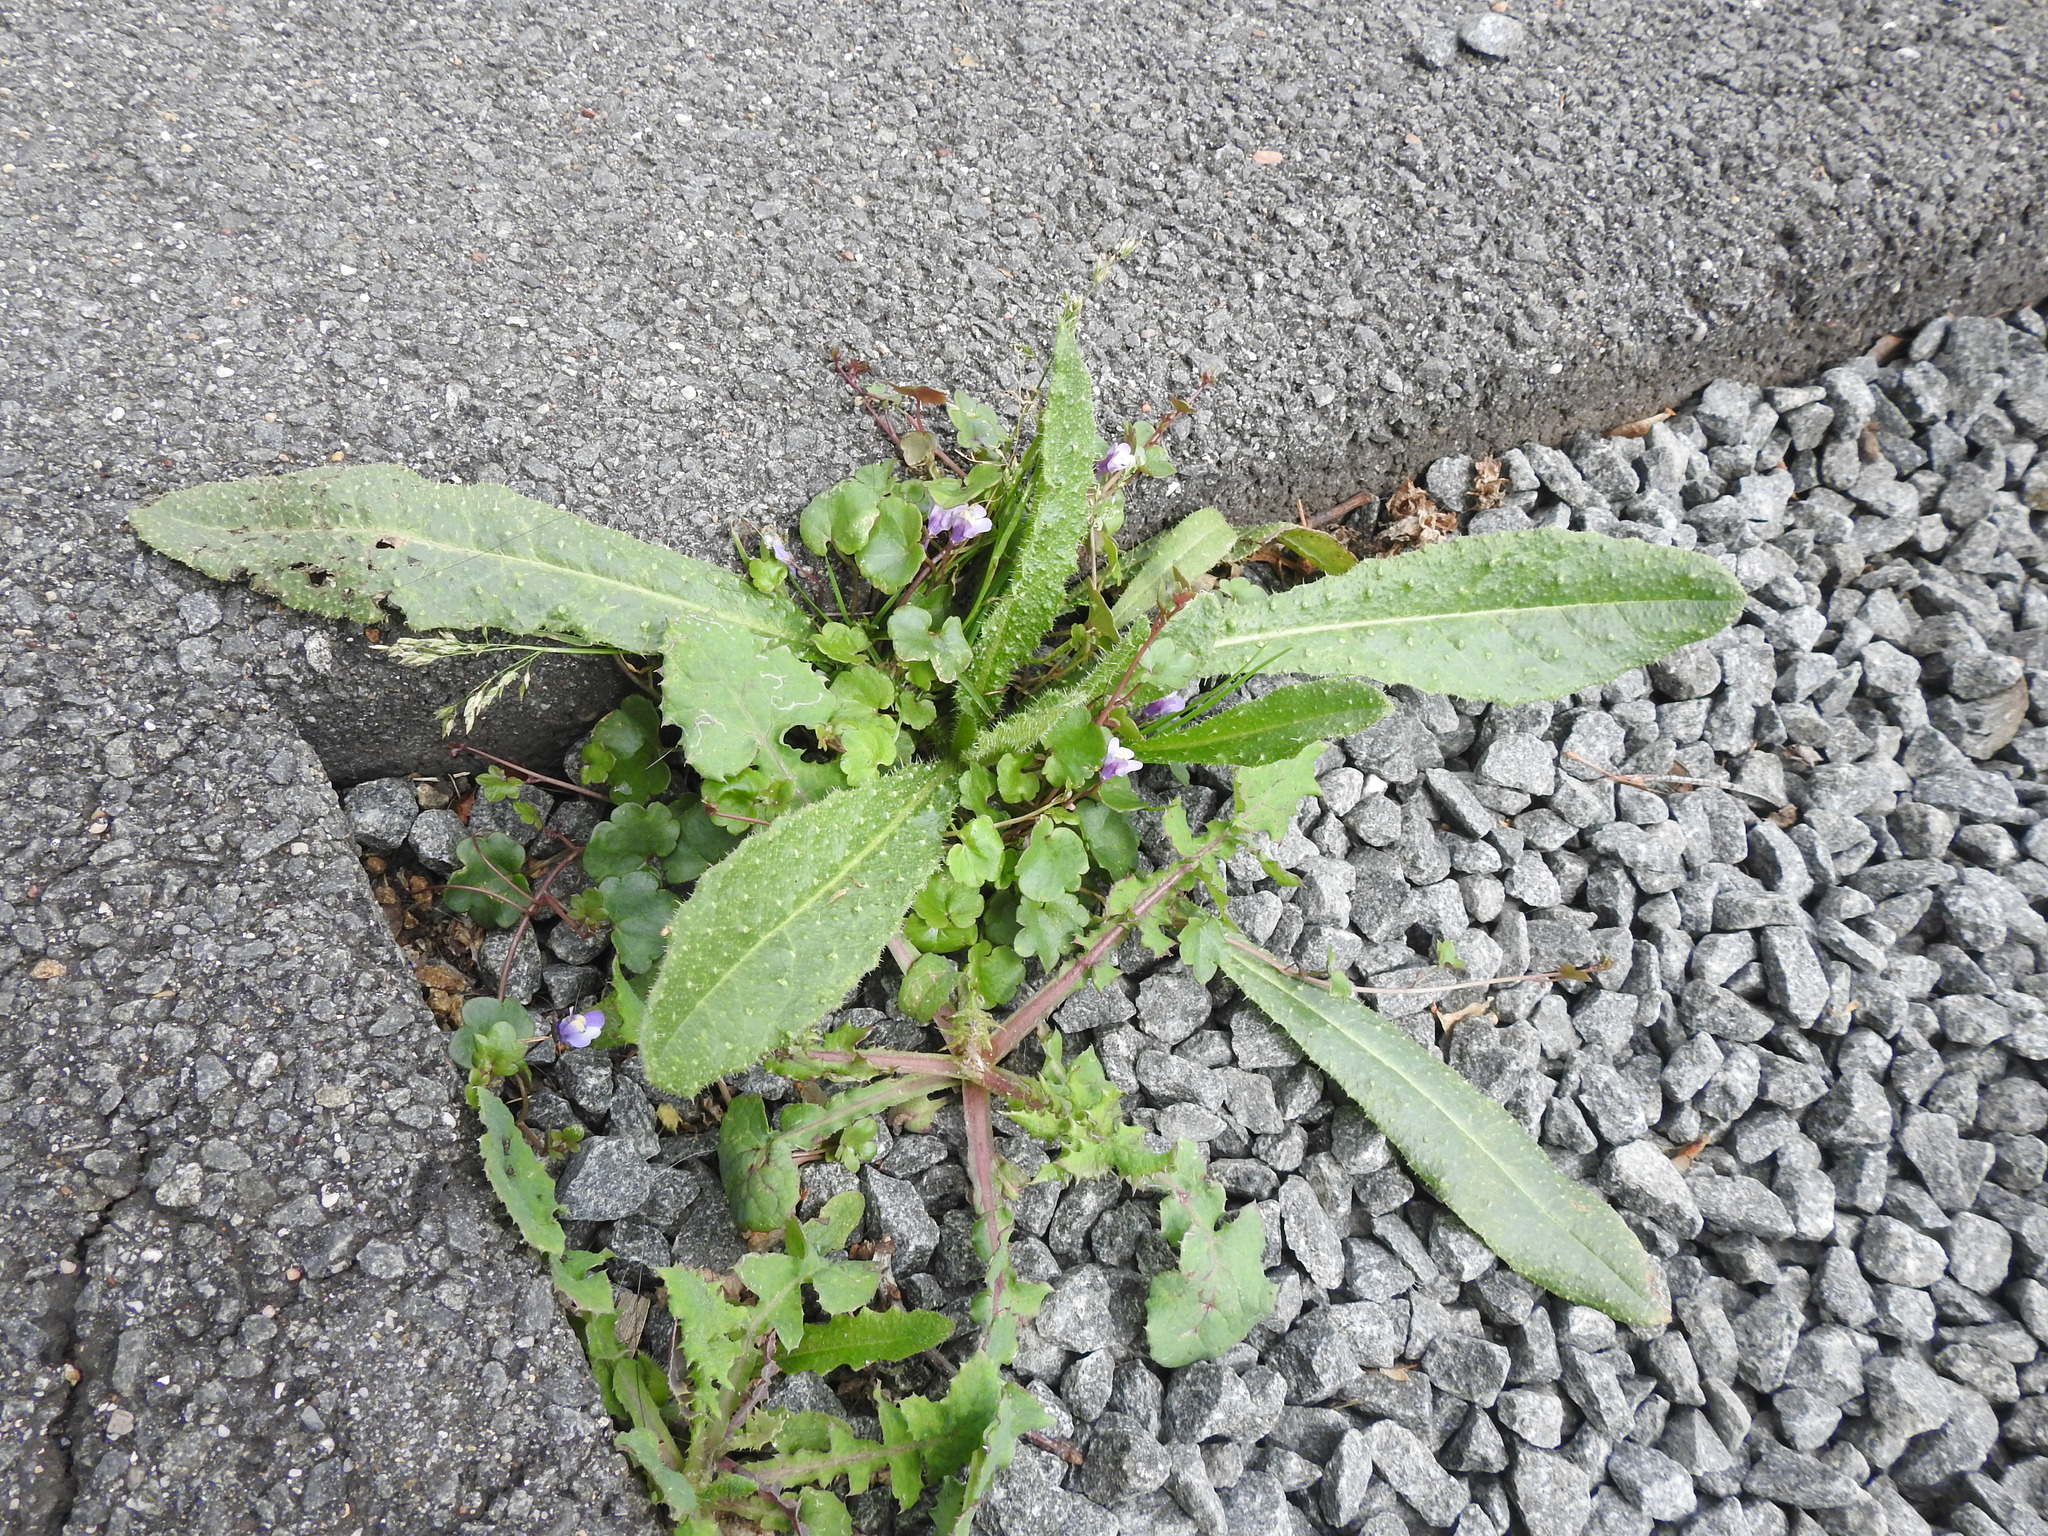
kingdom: Plantae
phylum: Tracheophyta
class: Magnoliopsida
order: Asterales
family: Asteraceae
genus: Helminthotheca
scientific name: Helminthotheca echioides
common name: Ox-tongue
